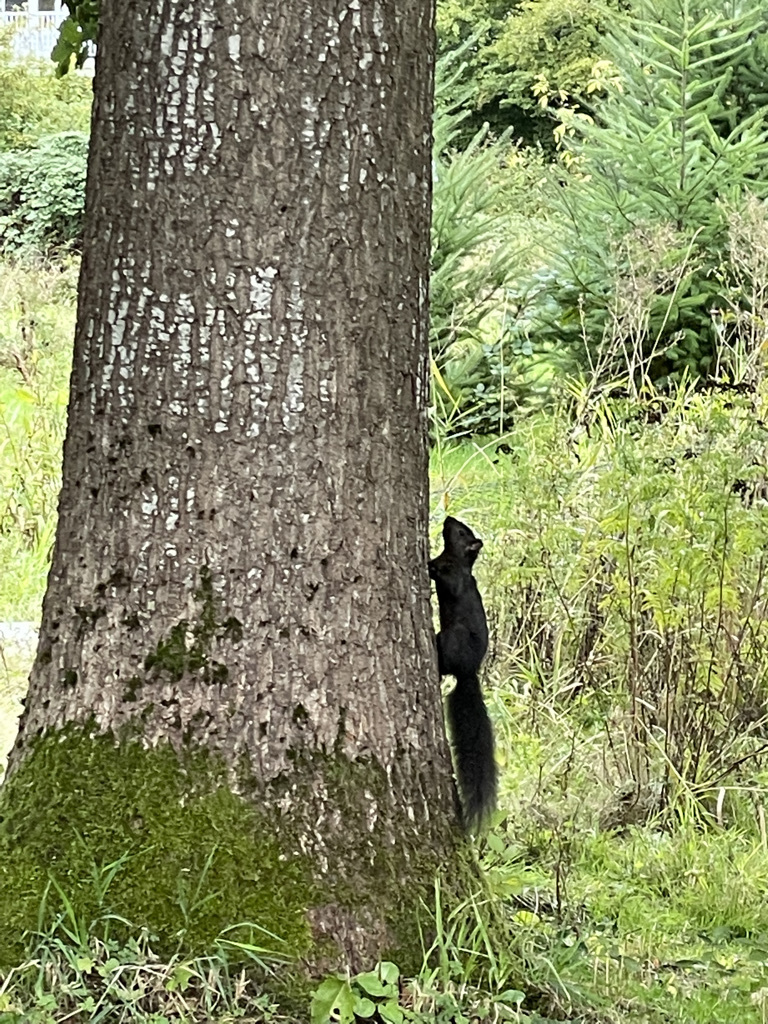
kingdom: Animalia
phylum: Chordata
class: Mammalia
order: Rodentia
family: Sciuridae
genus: Sciurus
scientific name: Sciurus carolinensis
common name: Eastern gray squirrel
